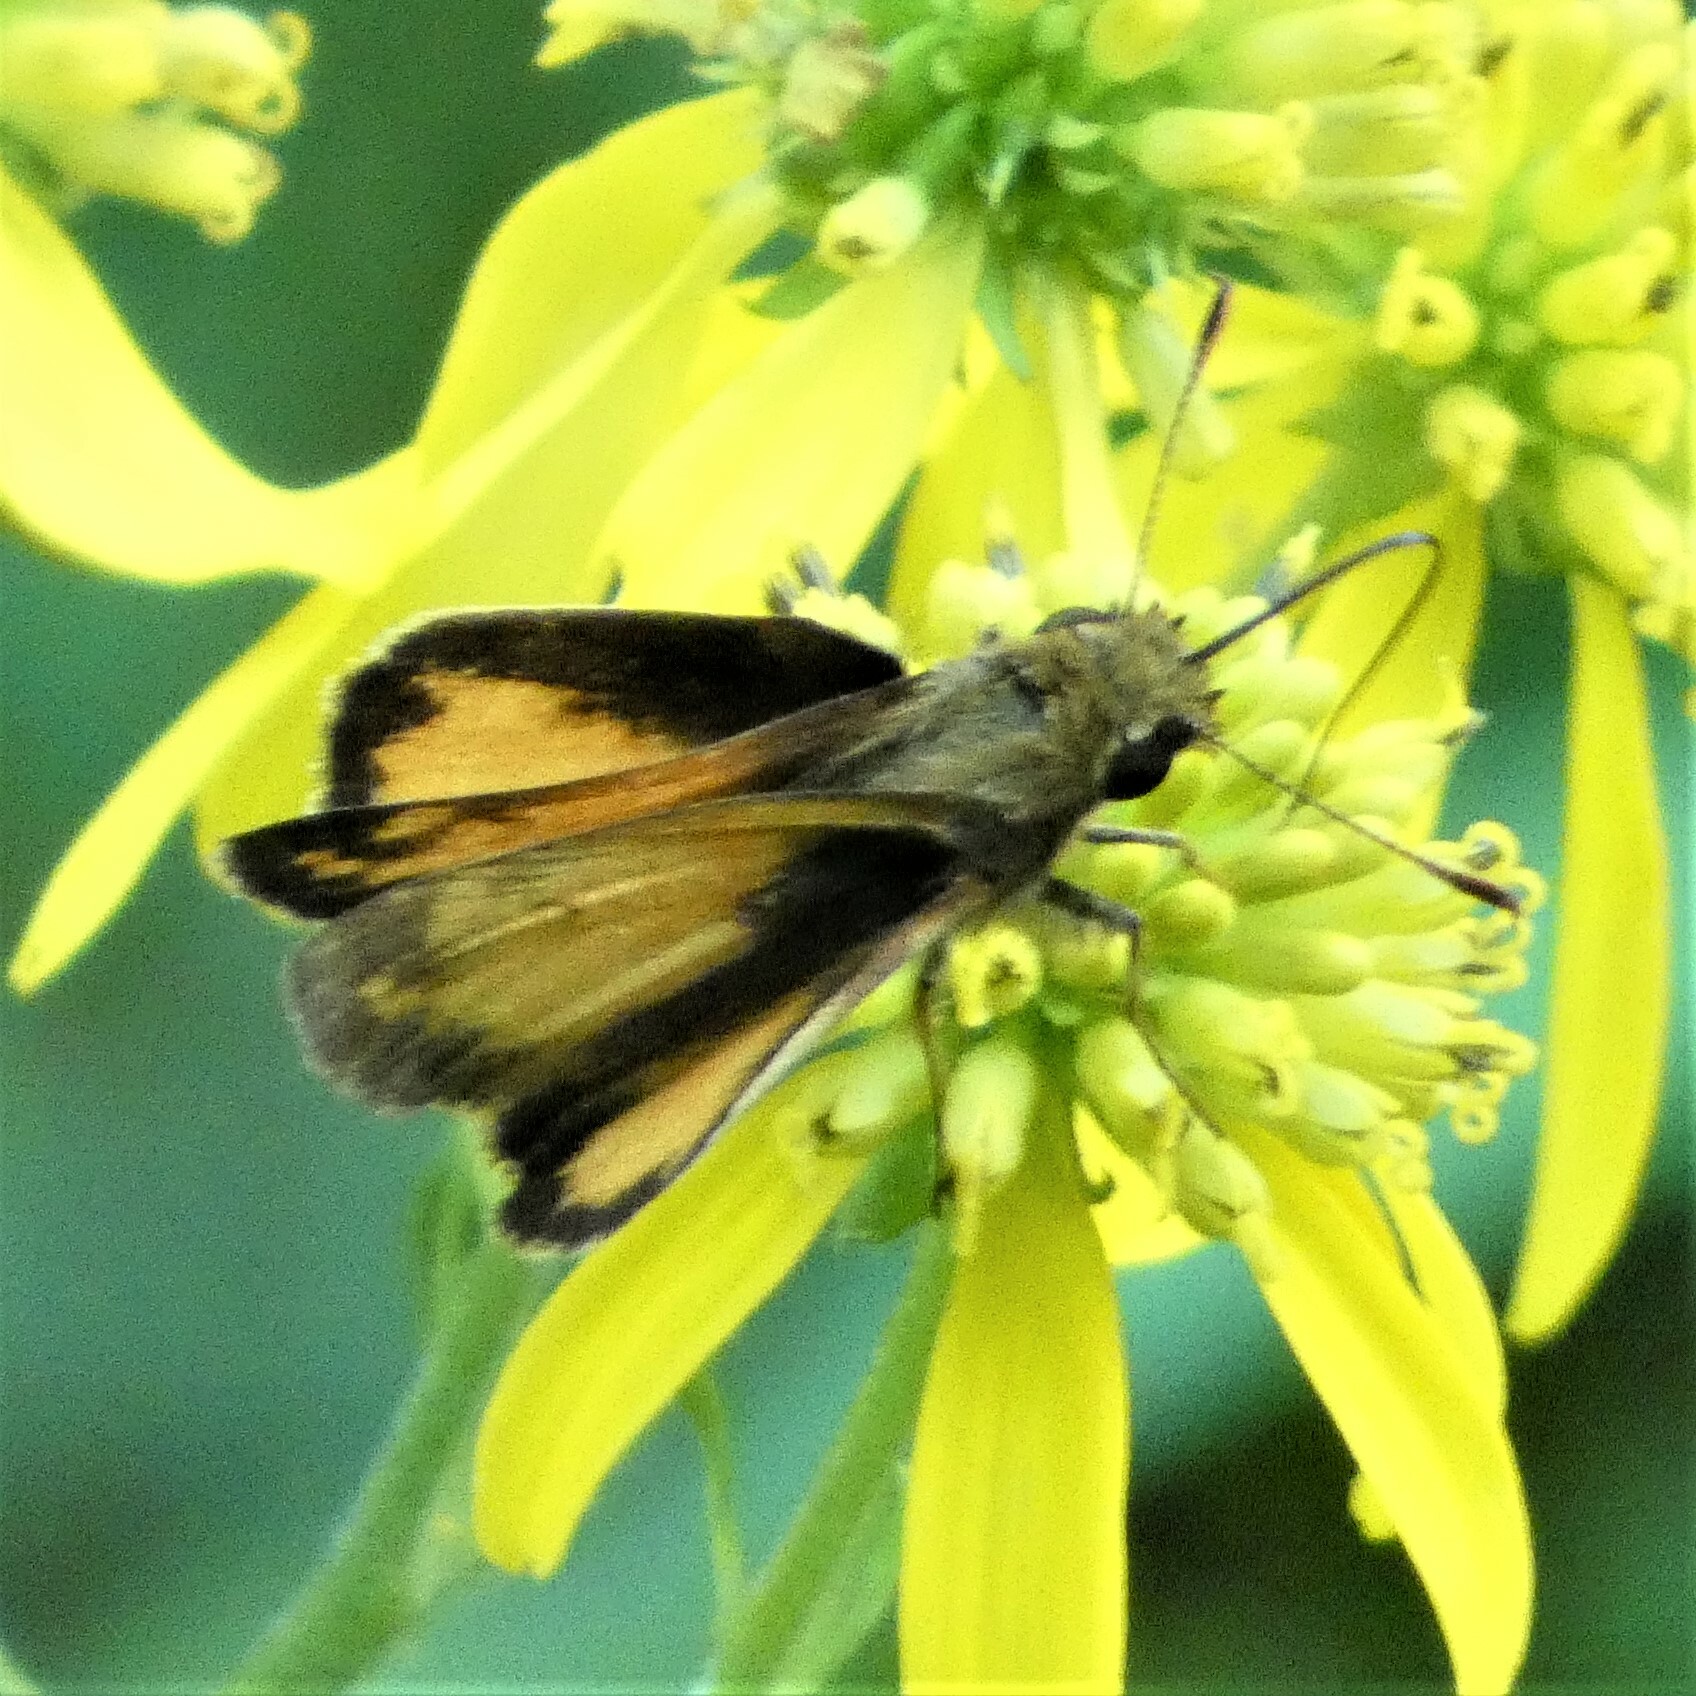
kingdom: Animalia
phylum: Arthropoda
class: Insecta
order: Lepidoptera
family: Hesperiidae
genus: Lon
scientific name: Lon zabulon
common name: Zabulon skipper
